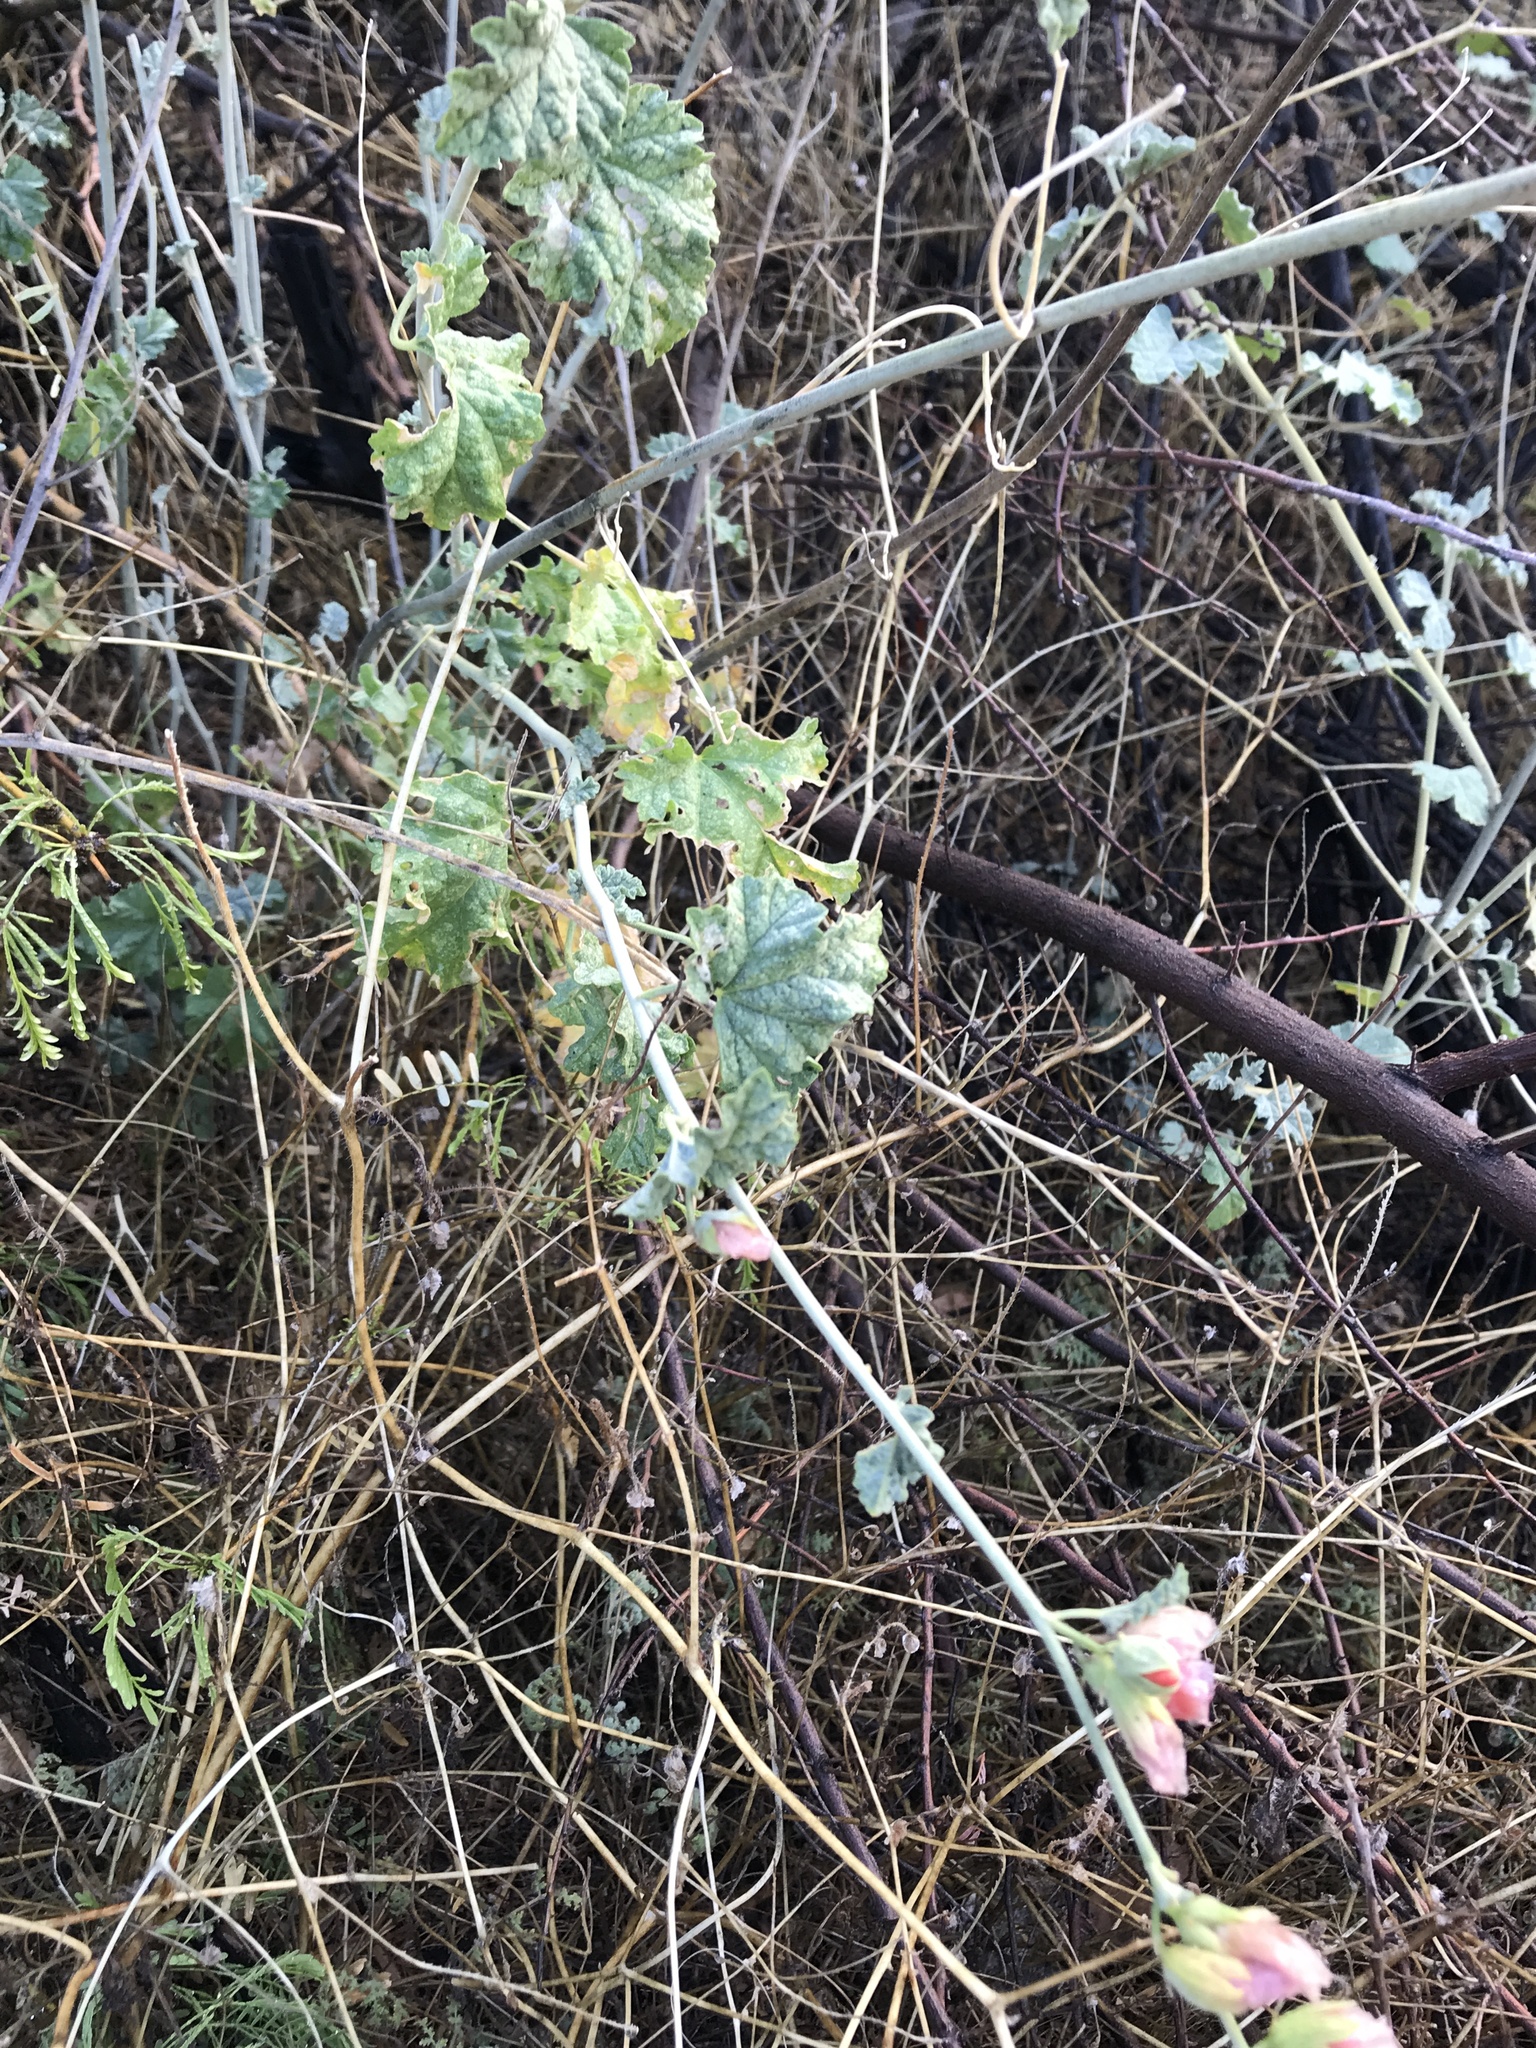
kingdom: Plantae
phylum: Tracheophyta
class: Magnoliopsida
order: Malvales
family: Malvaceae
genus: Sphaeralcea
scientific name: Sphaeralcea ambigua
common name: Apricot globe-mallow
